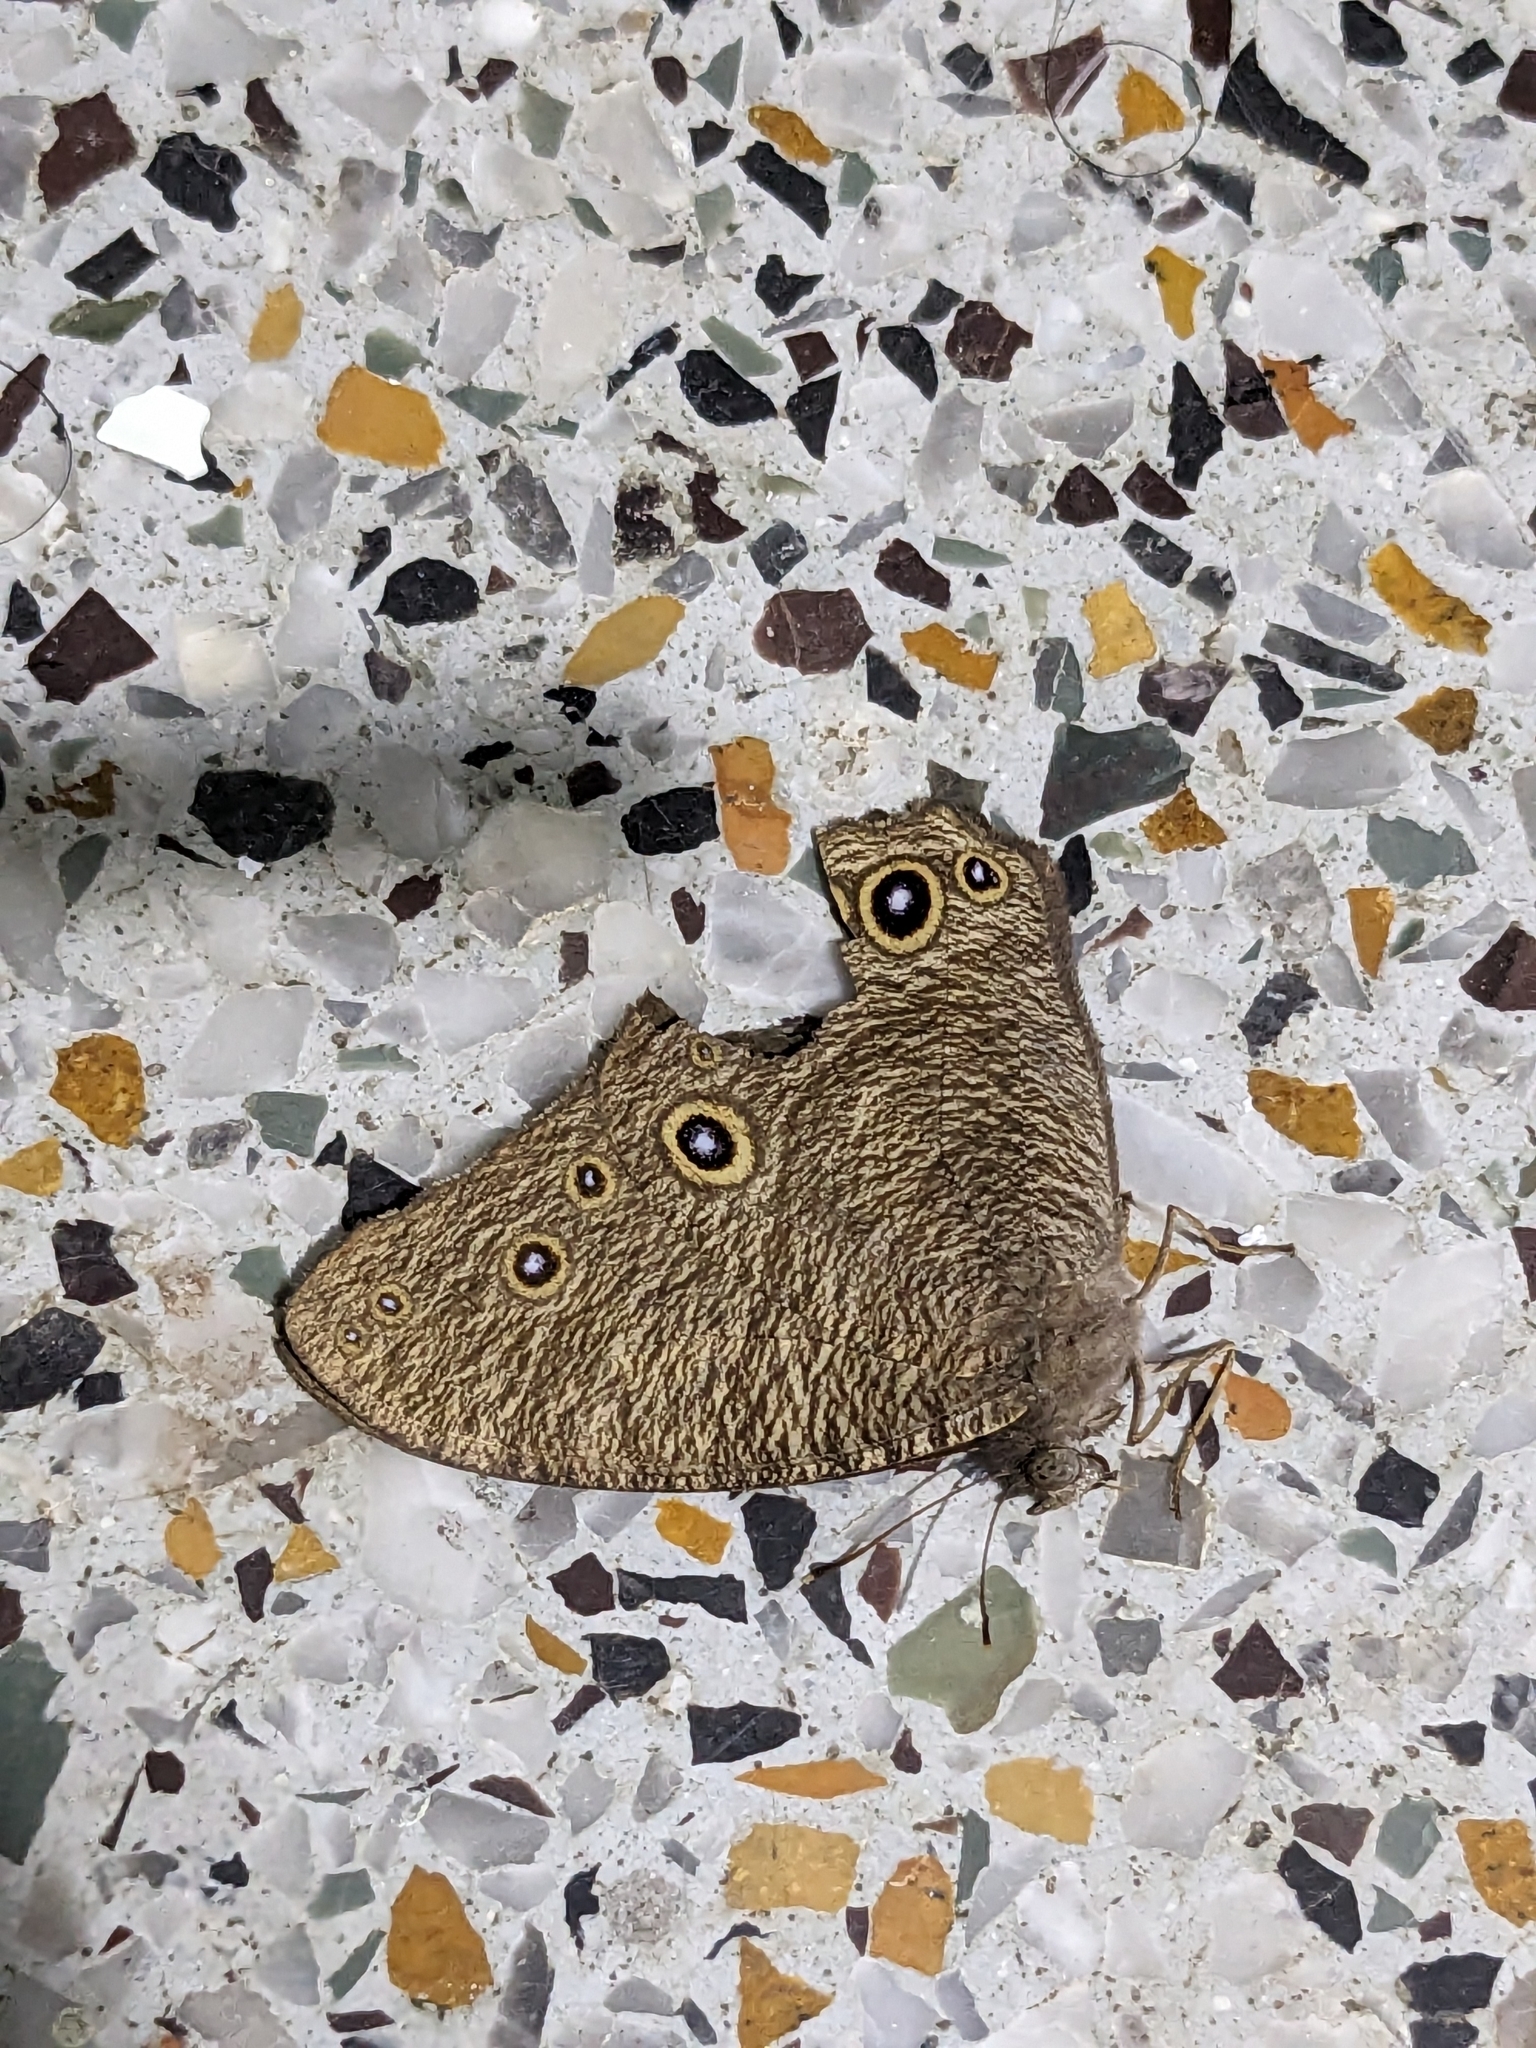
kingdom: Animalia
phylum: Arthropoda
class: Insecta
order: Lepidoptera
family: Nymphalidae
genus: Melanitis
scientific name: Melanitis leda
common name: Twilight brown
